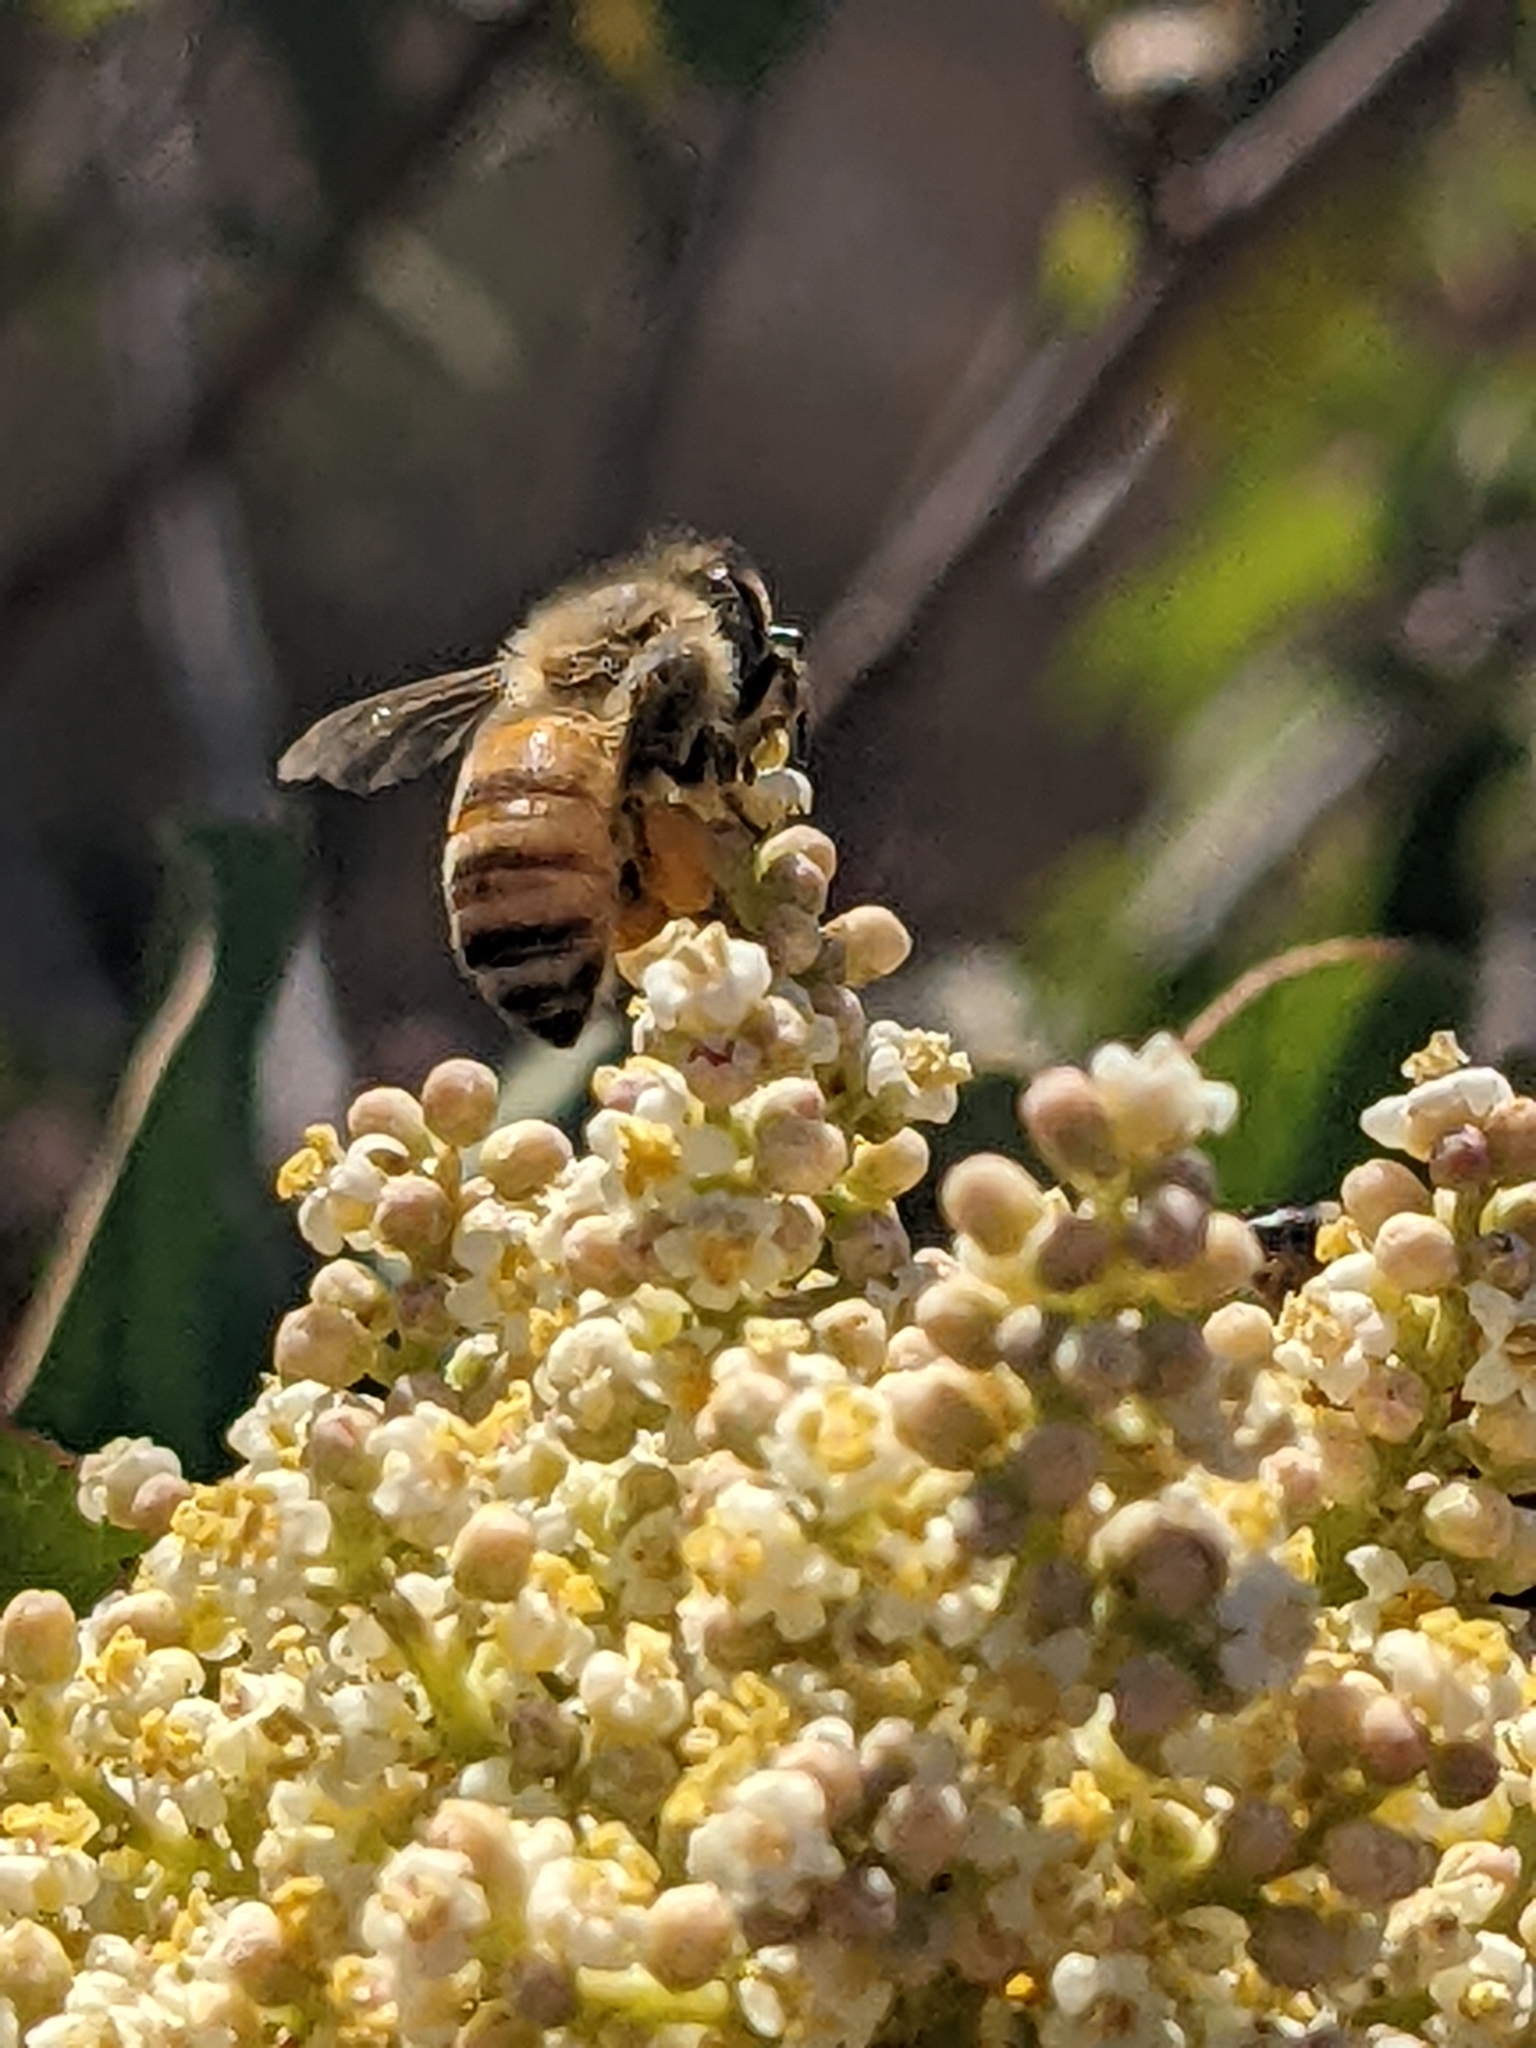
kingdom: Animalia
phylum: Arthropoda
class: Insecta
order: Hymenoptera
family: Apidae
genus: Apis
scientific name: Apis mellifera
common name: Honey bee
